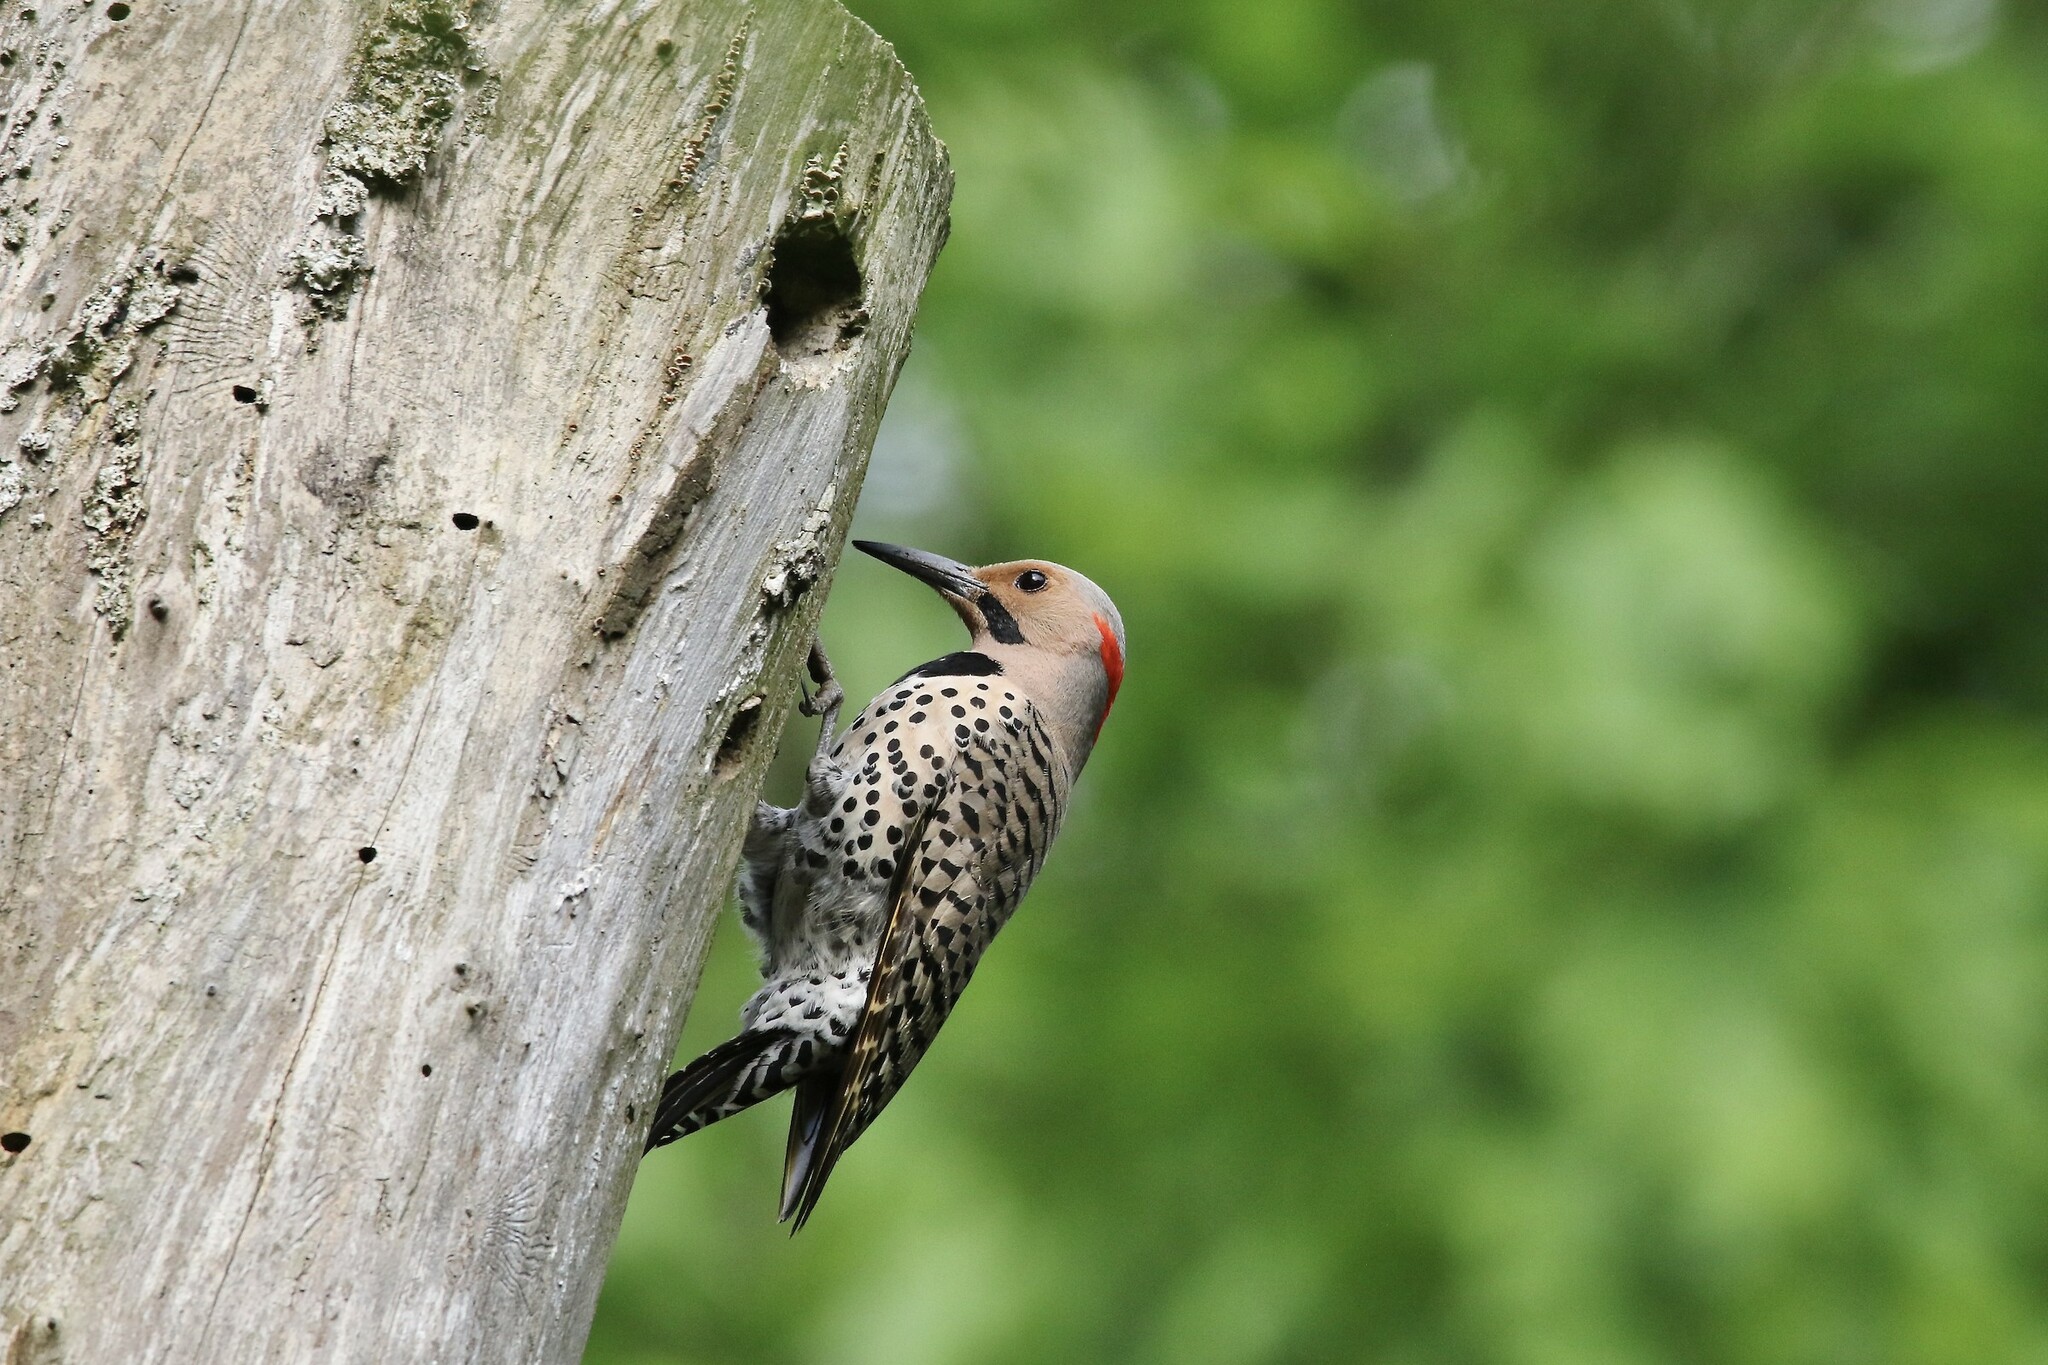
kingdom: Animalia
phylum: Chordata
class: Aves
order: Piciformes
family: Picidae
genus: Colaptes
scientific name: Colaptes auratus
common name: Northern flicker
